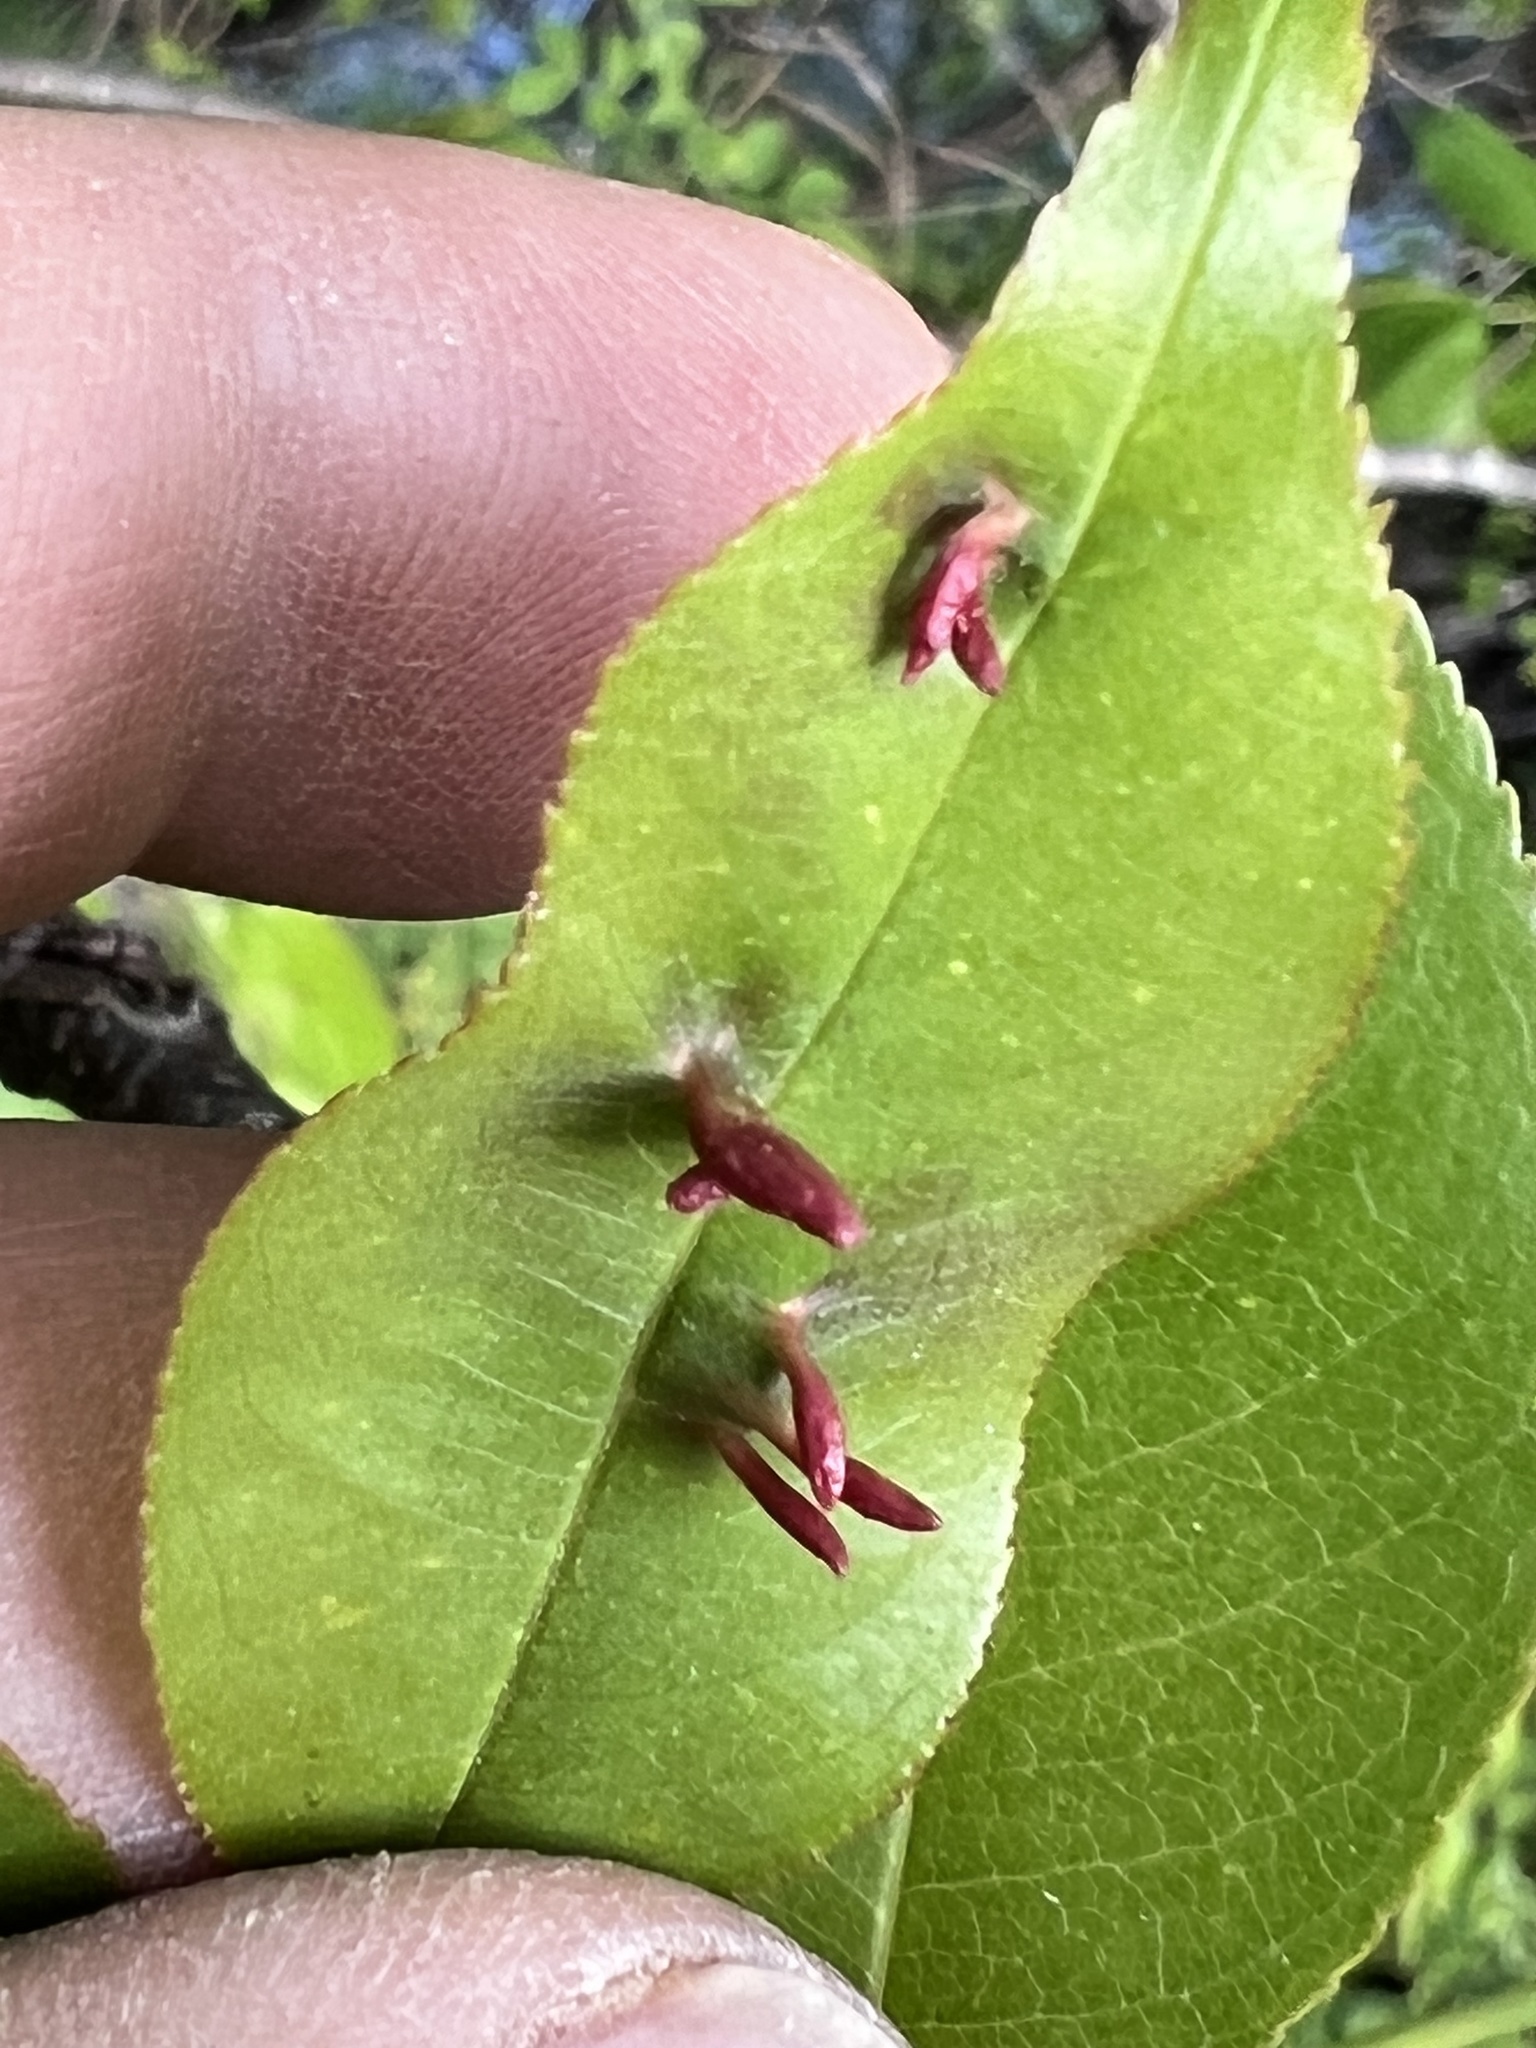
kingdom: Animalia
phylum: Arthropoda
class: Arachnida
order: Trombidiformes
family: Eriophyidae
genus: Eriophyes
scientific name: Eriophyes
